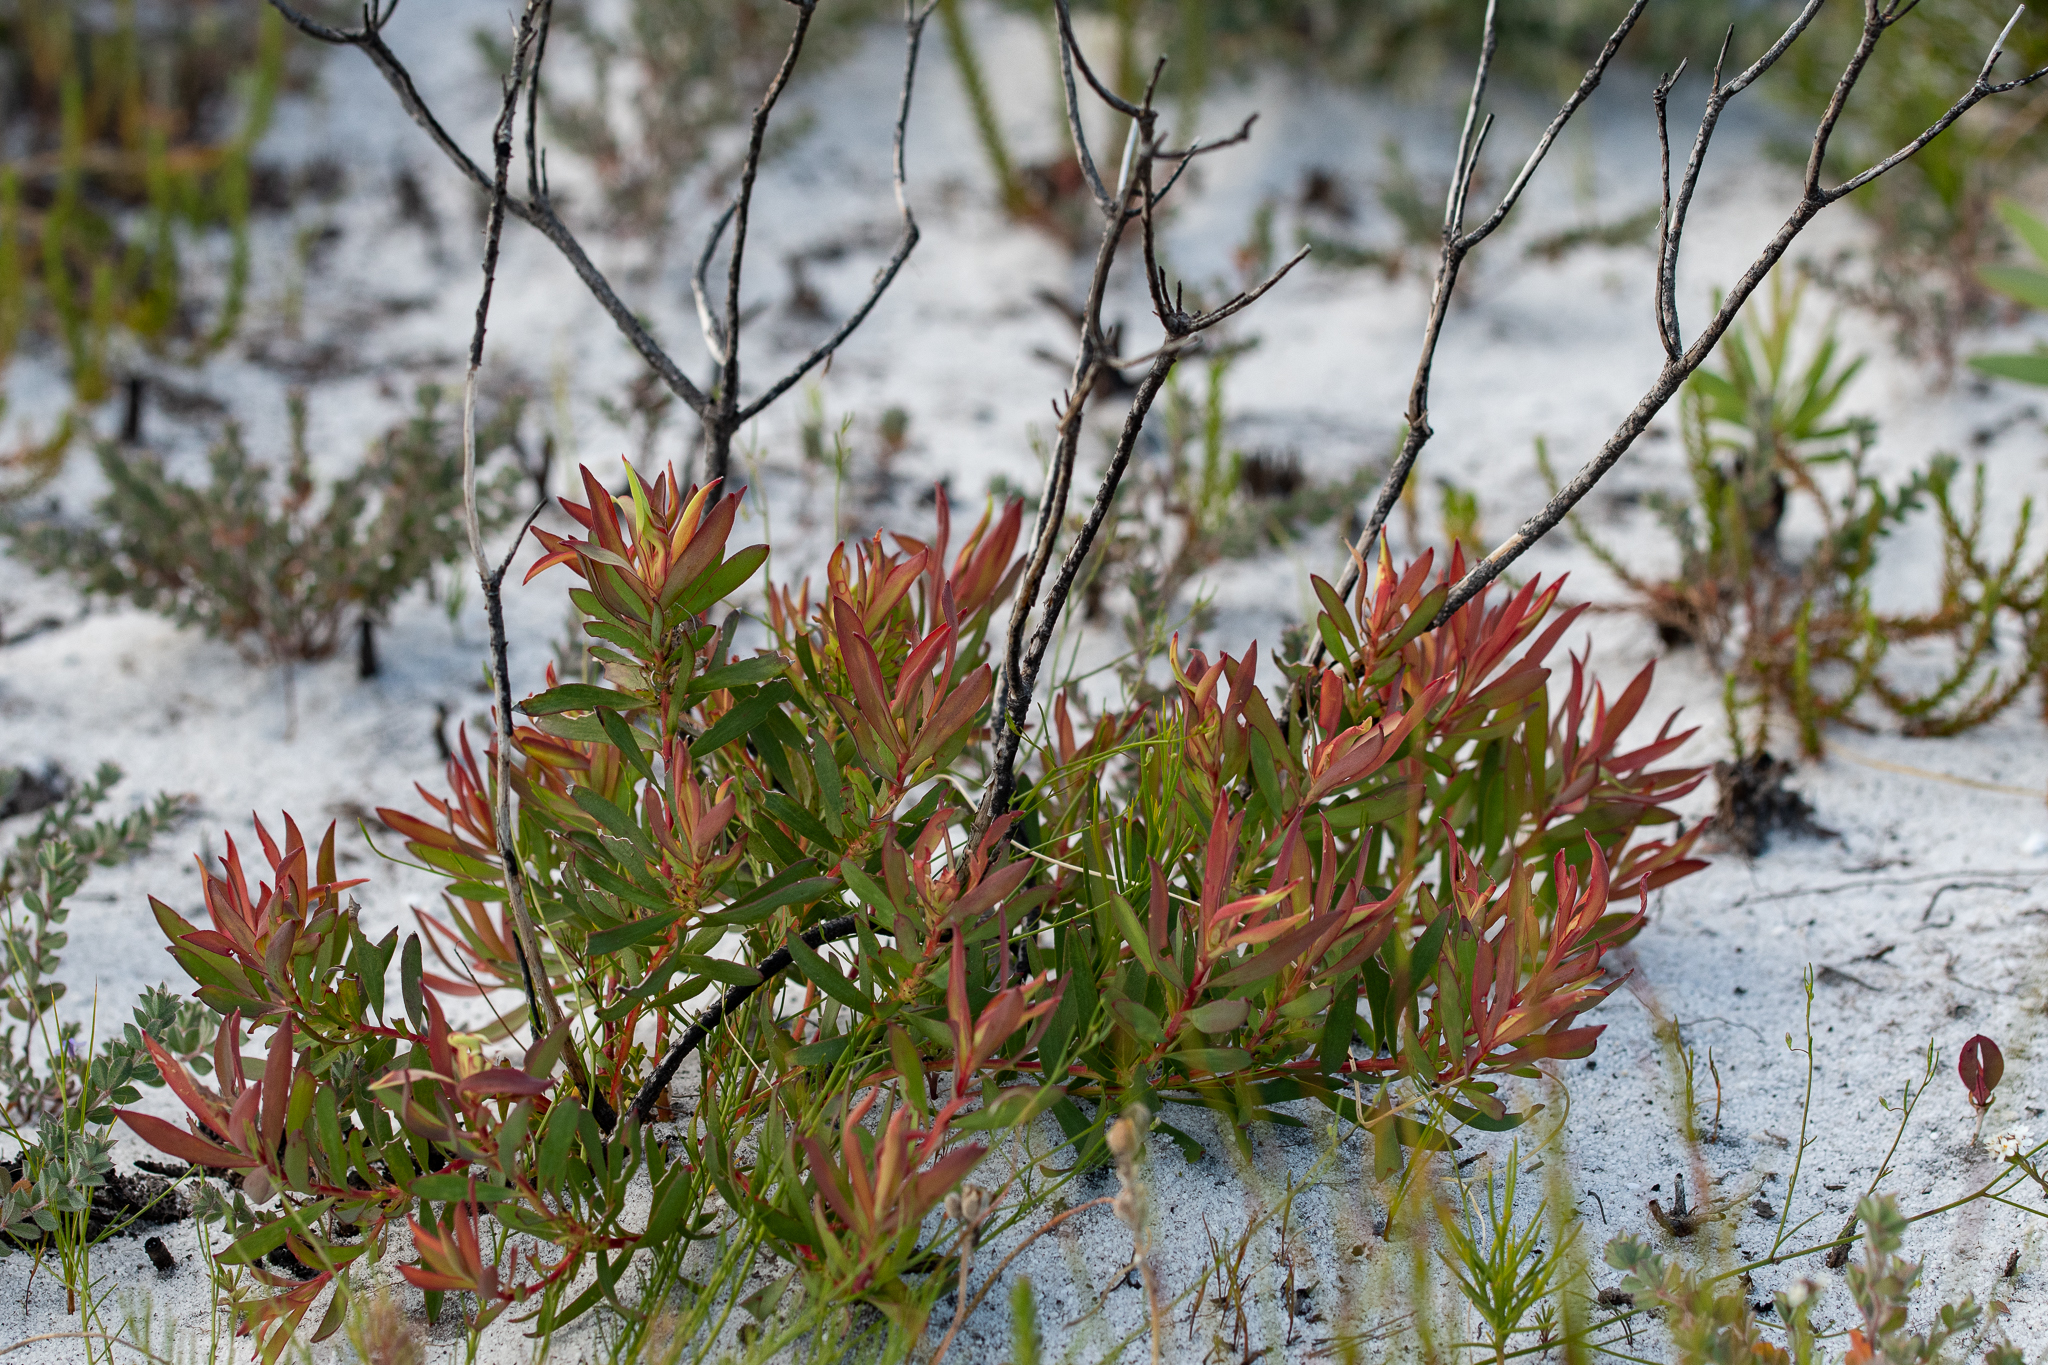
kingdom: Plantae
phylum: Tracheophyta
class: Magnoliopsida
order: Proteales
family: Proteaceae
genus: Leucadendron
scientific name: Leucadendron salignum
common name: Common sunshine conebush
